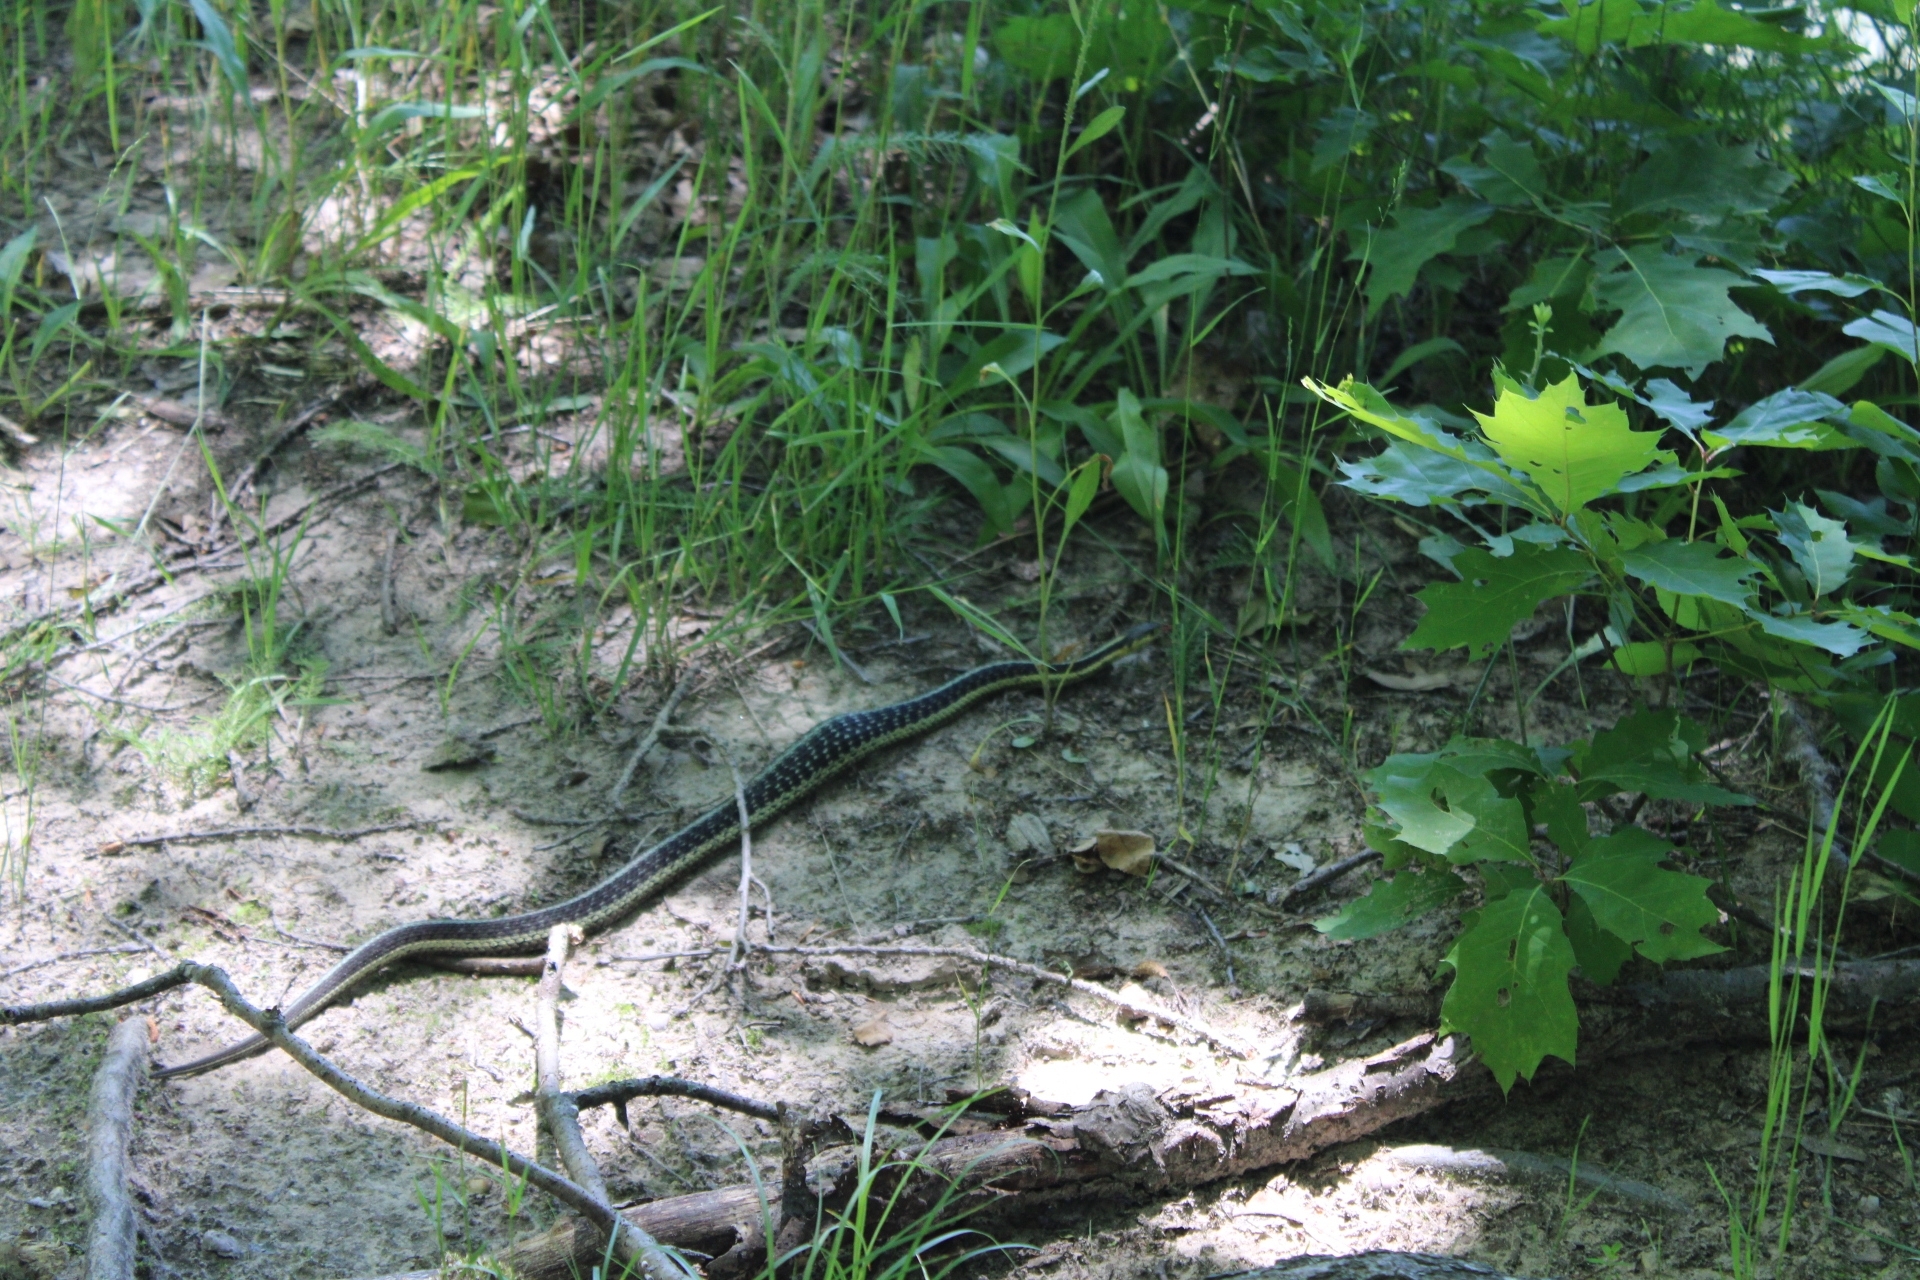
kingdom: Animalia
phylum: Chordata
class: Squamata
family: Colubridae
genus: Thamnophis
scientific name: Thamnophis sirtalis
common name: Common garter snake
